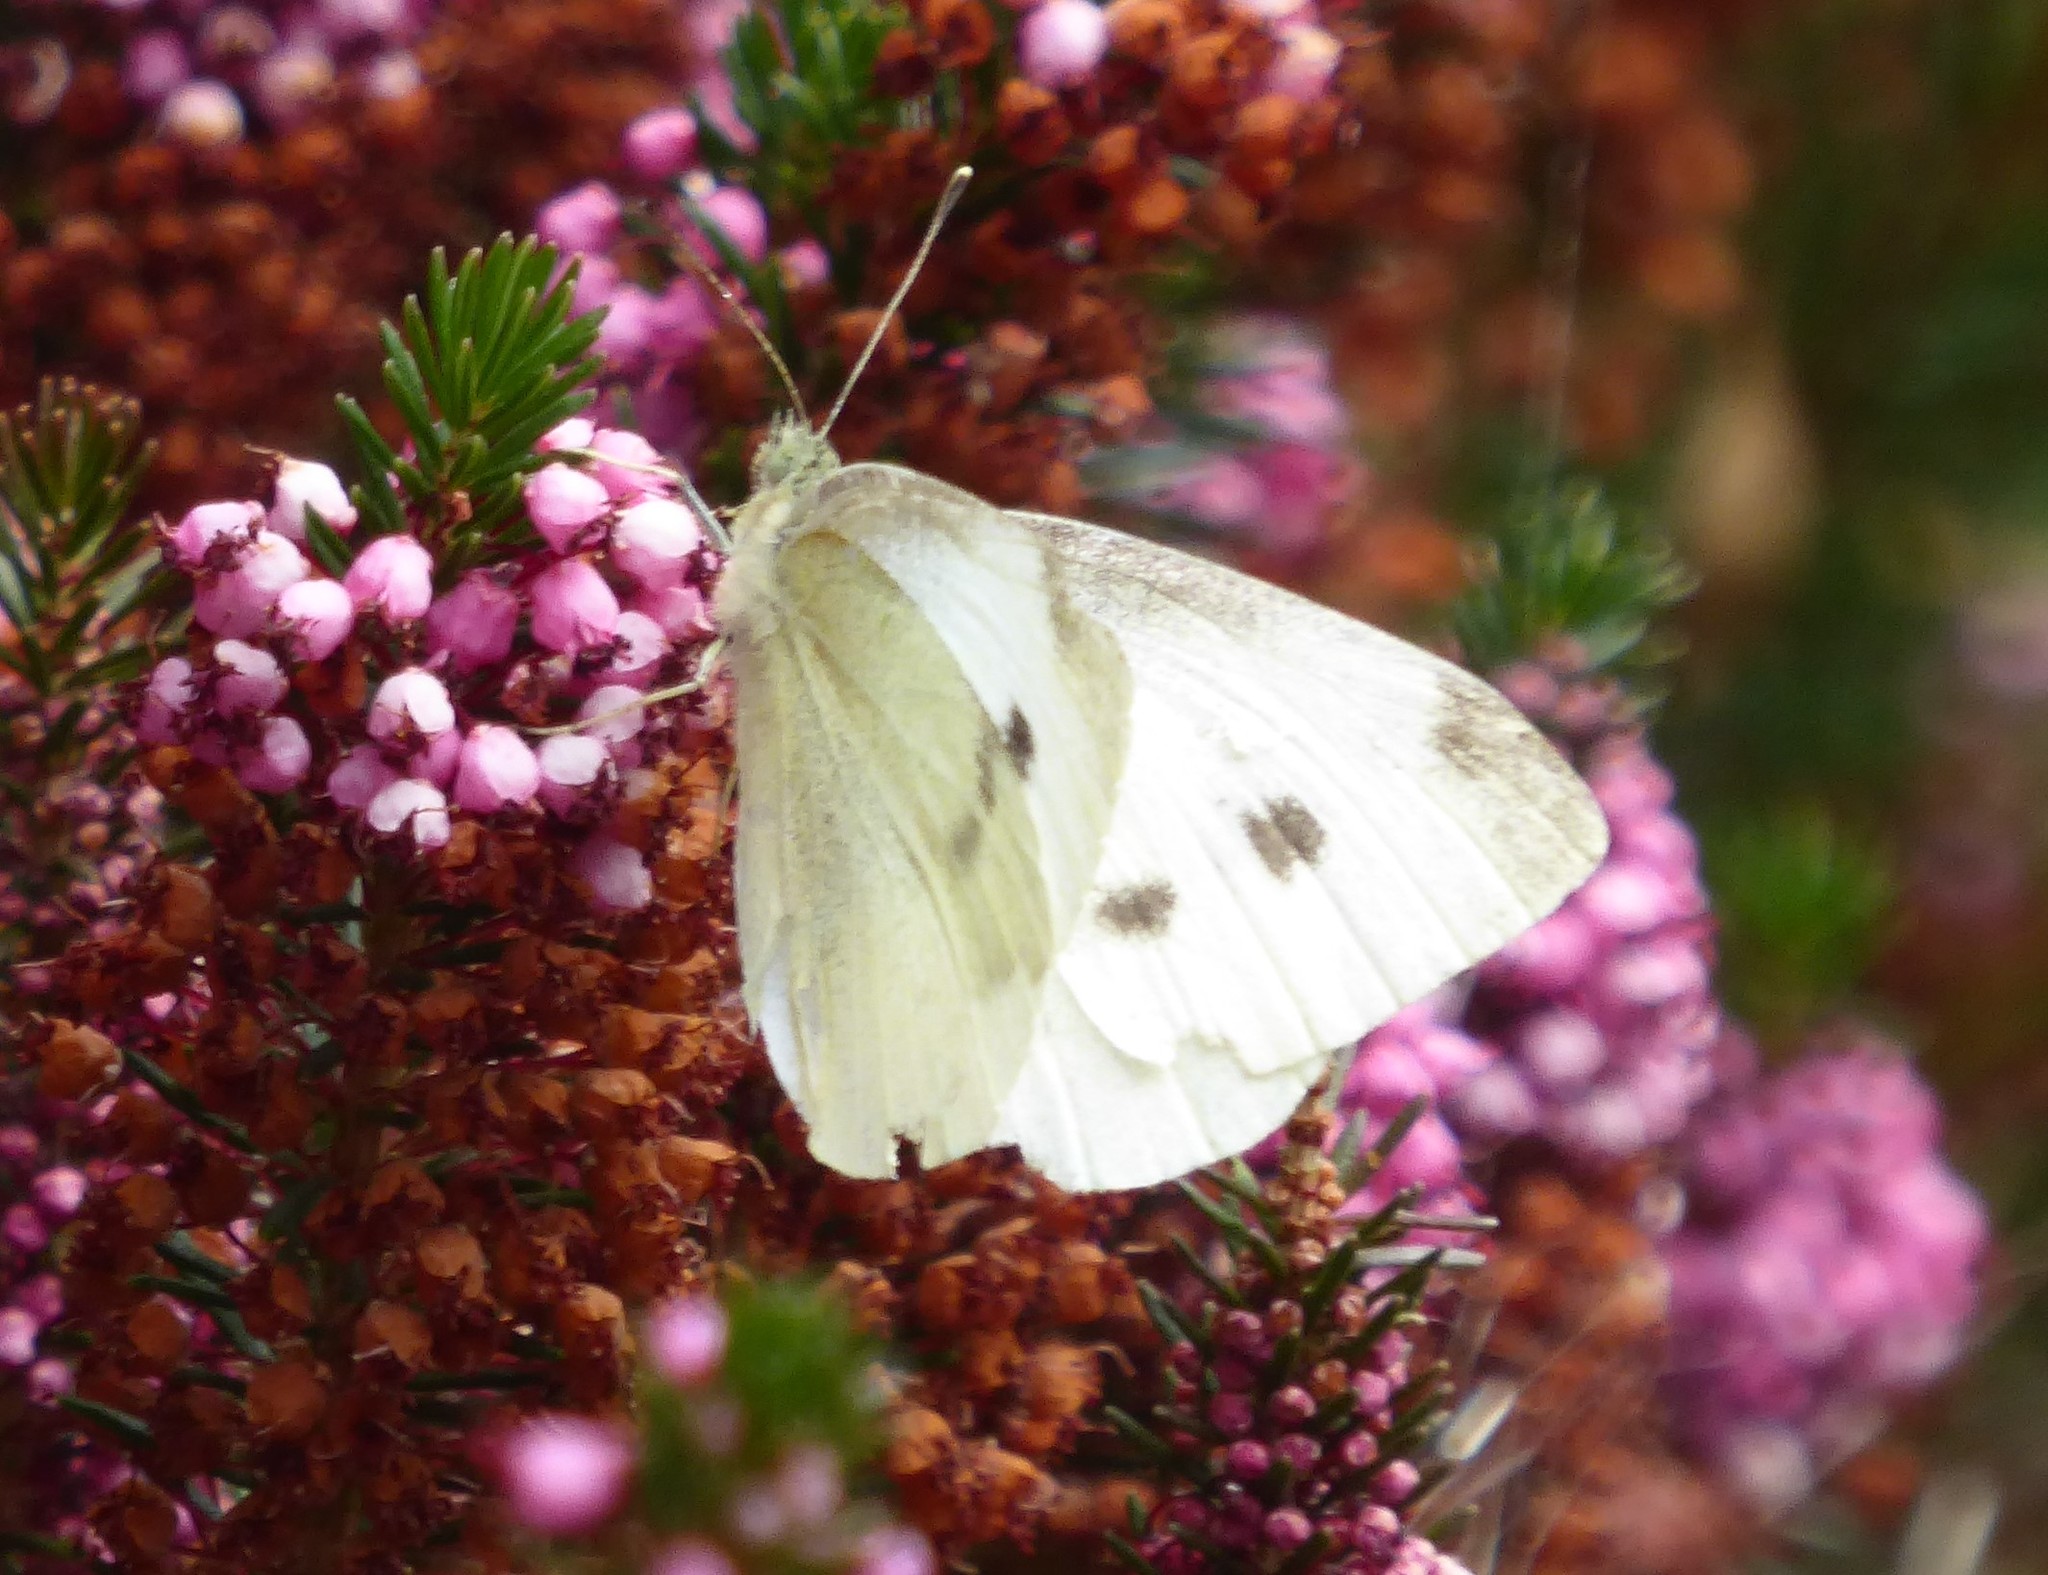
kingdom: Animalia
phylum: Arthropoda
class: Insecta
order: Lepidoptera
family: Pieridae
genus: Pieris
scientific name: Pieris rapae
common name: Small white
